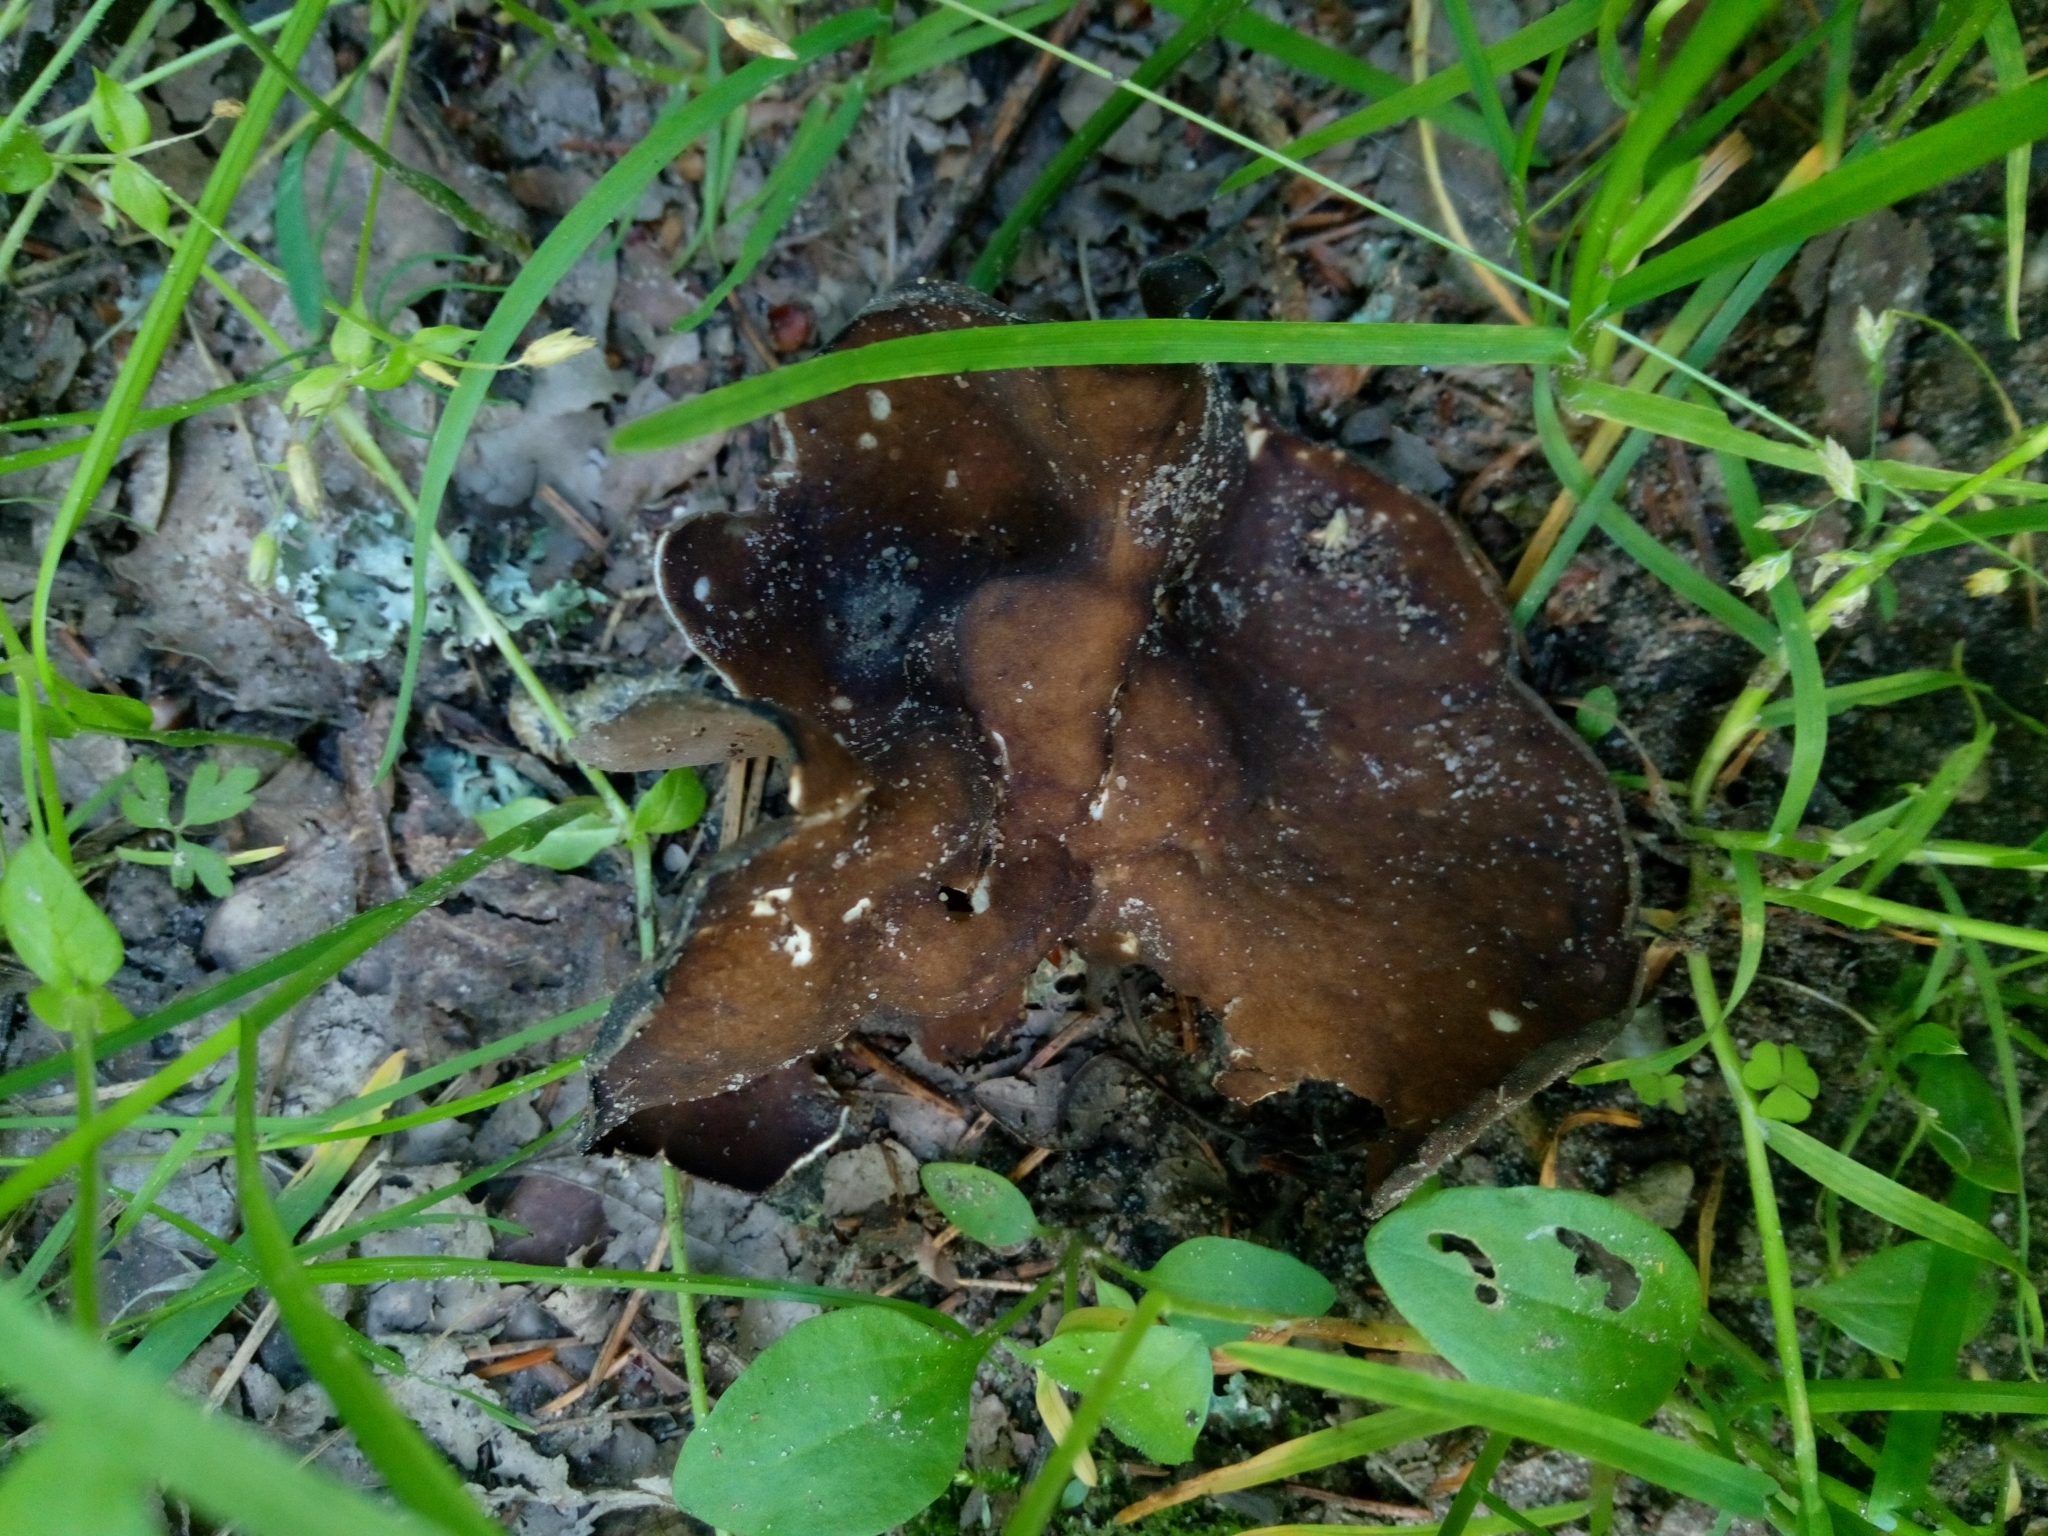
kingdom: Fungi
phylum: Ascomycota
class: Pezizomycetes
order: Pezizales
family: Helvellaceae
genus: Helvella
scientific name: Helvella solitaria
